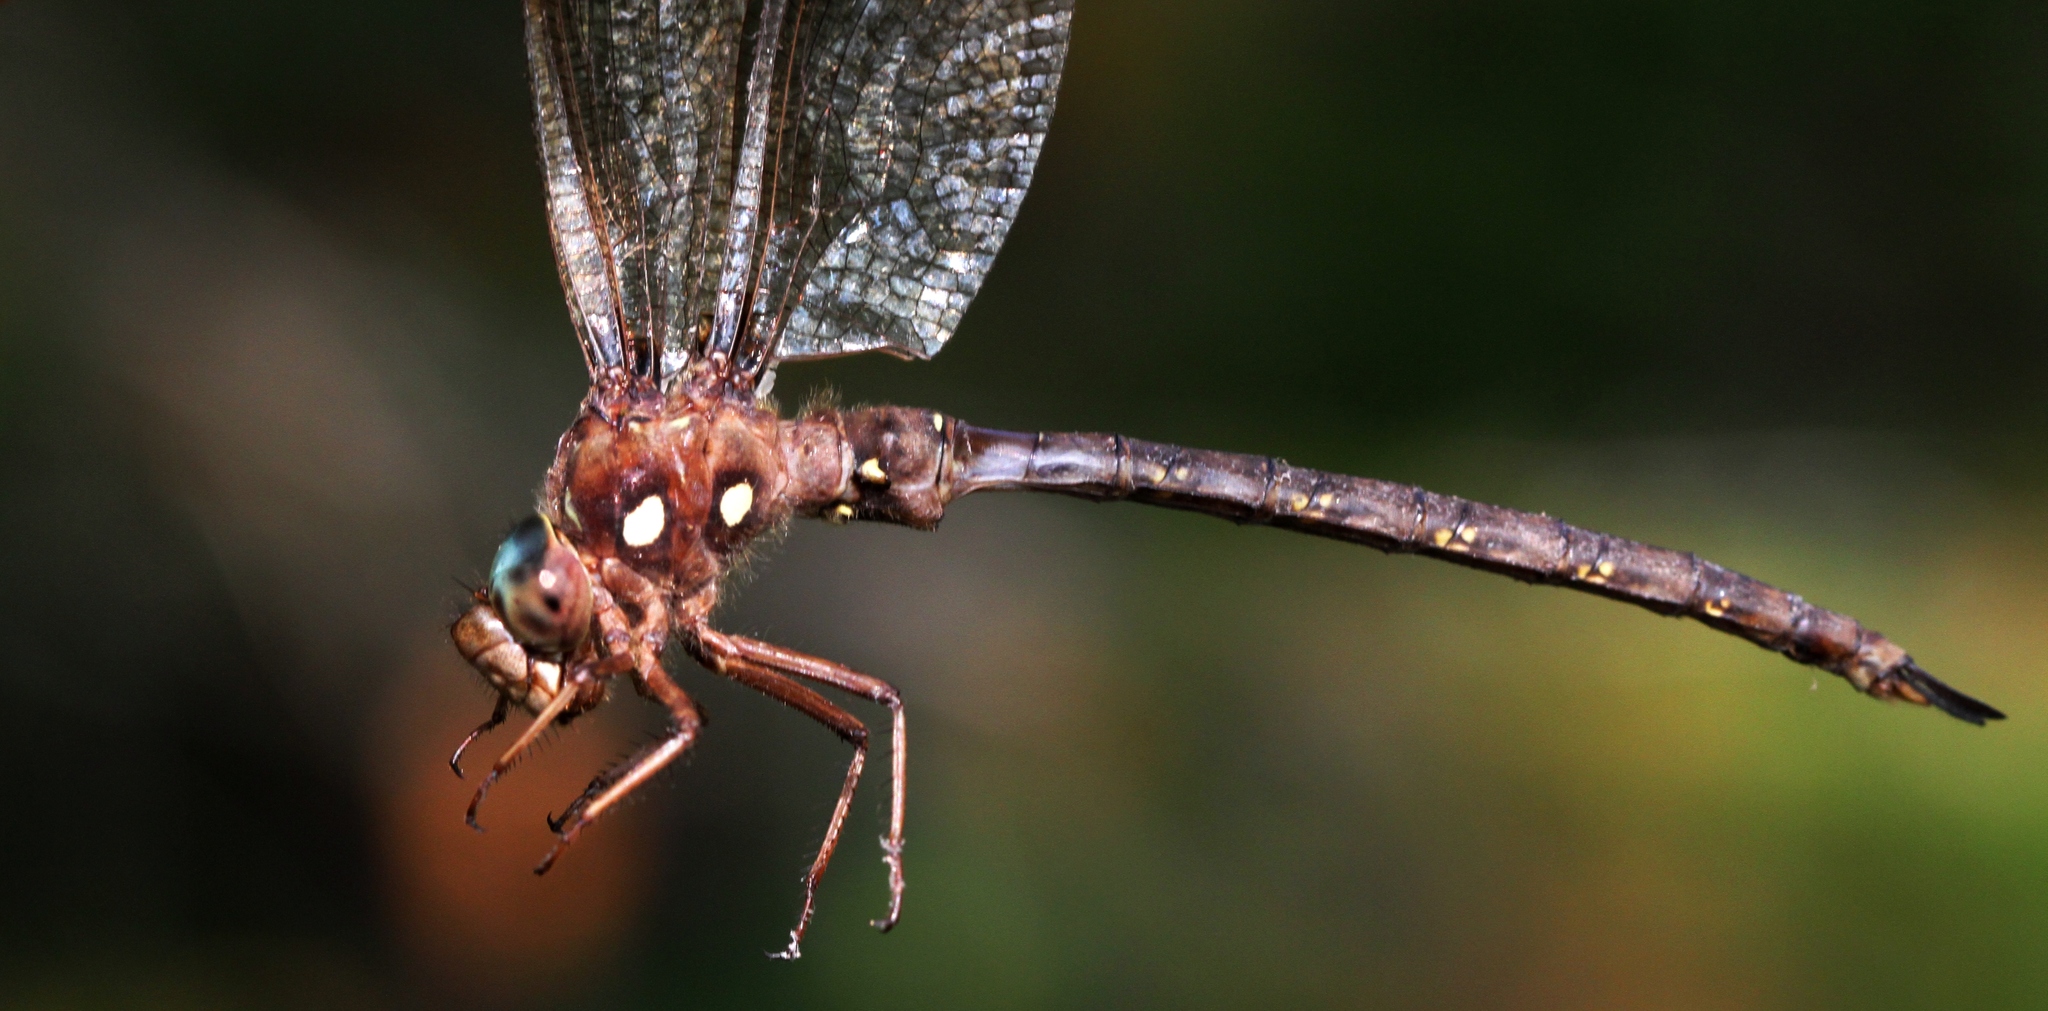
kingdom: Animalia
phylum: Arthropoda
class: Insecta
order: Odonata
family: Aeshnidae
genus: Boyeria
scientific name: Boyeria vinosa
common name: Fawn darner
